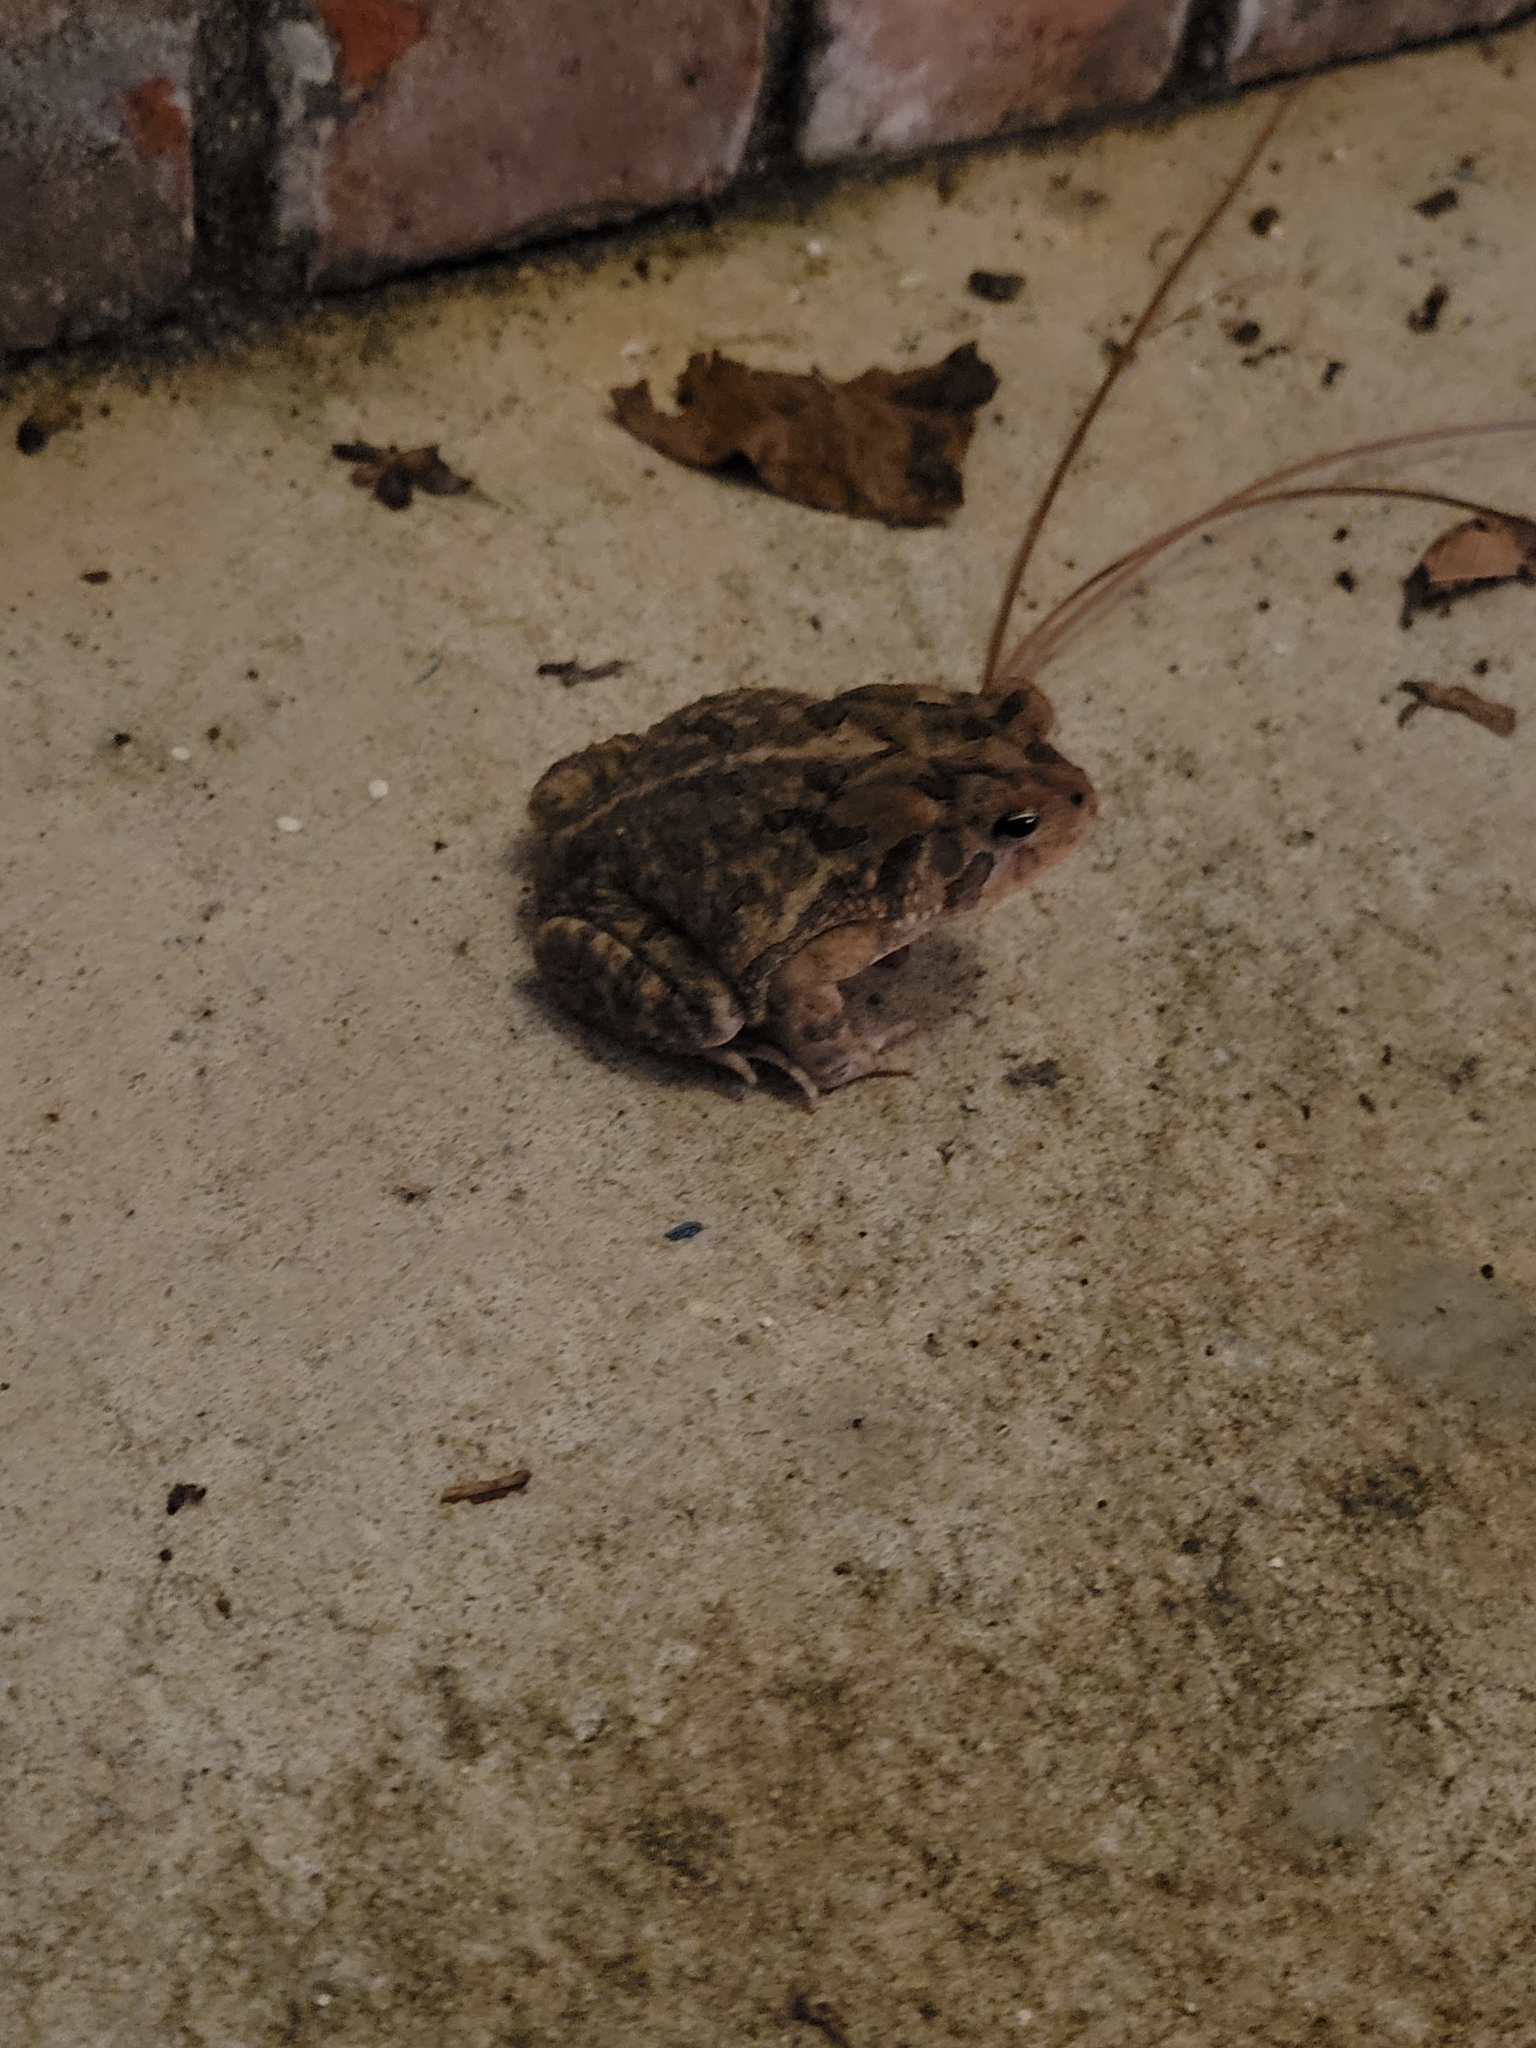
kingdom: Animalia
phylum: Chordata
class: Amphibia
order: Anura
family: Bufonidae
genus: Anaxyrus
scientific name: Anaxyrus terrestris
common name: Southern toad
